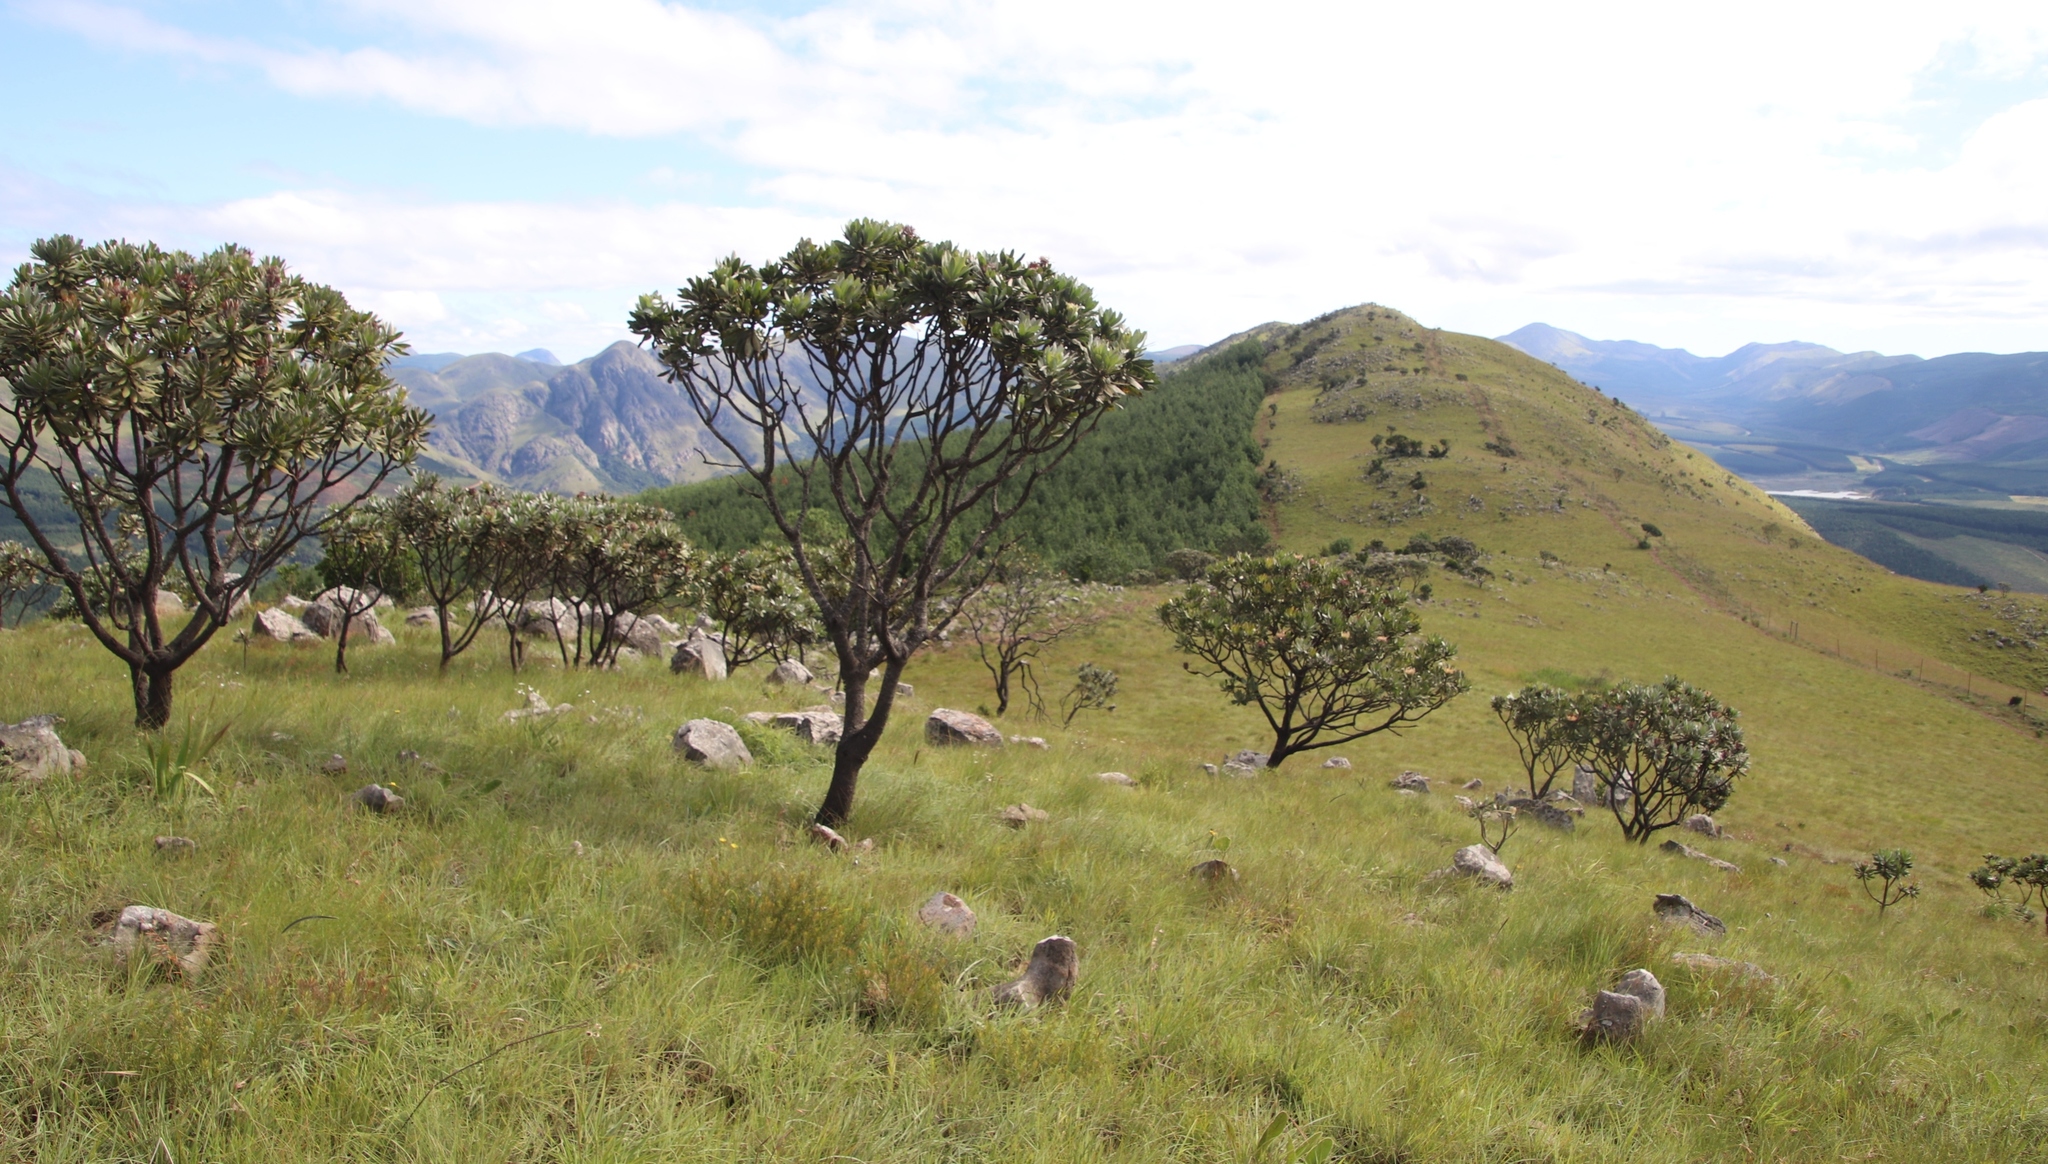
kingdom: Plantae
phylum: Tracheophyta
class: Magnoliopsida
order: Proteales
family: Proteaceae
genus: Protea
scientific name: Protea roupelliae
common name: Silver sugarbush
